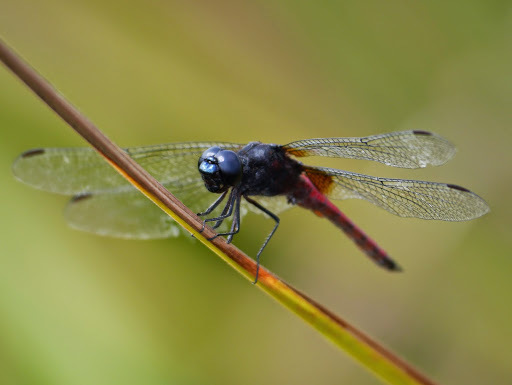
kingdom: Animalia
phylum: Arthropoda
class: Insecta
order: Odonata
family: Libellulidae
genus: Hadrothemis
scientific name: Hadrothemis defecta
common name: Scarlet jungleskimmer
